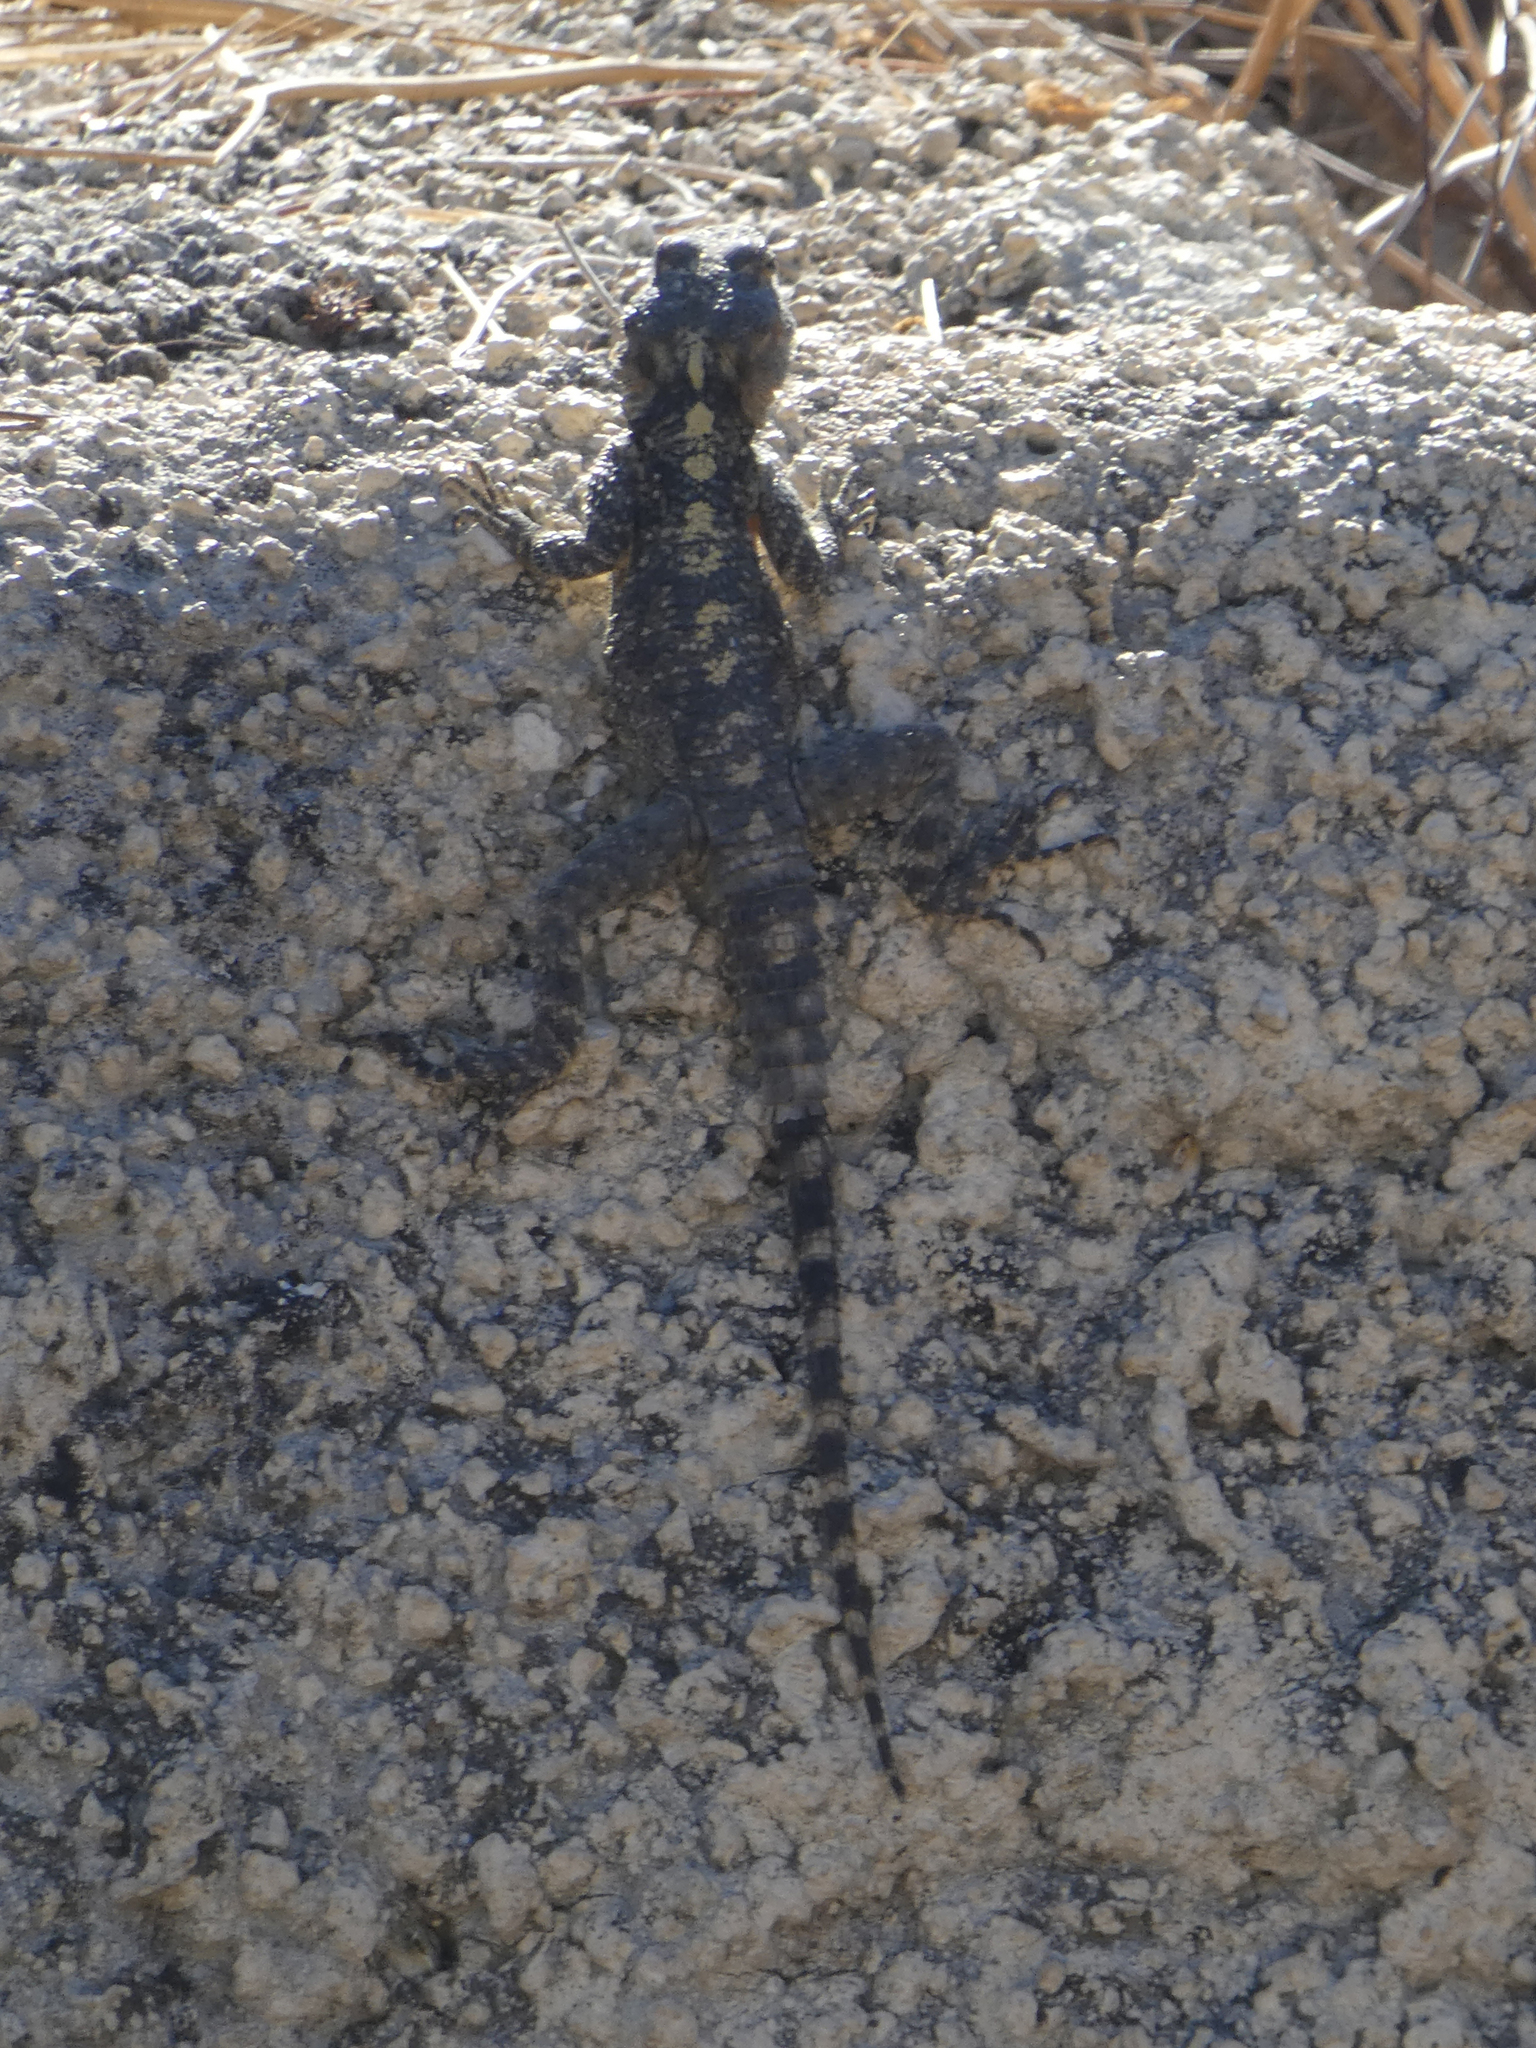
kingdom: Animalia
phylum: Chordata
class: Squamata
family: Agamidae
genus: Stellagama
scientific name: Stellagama stellio
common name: Starred agama
